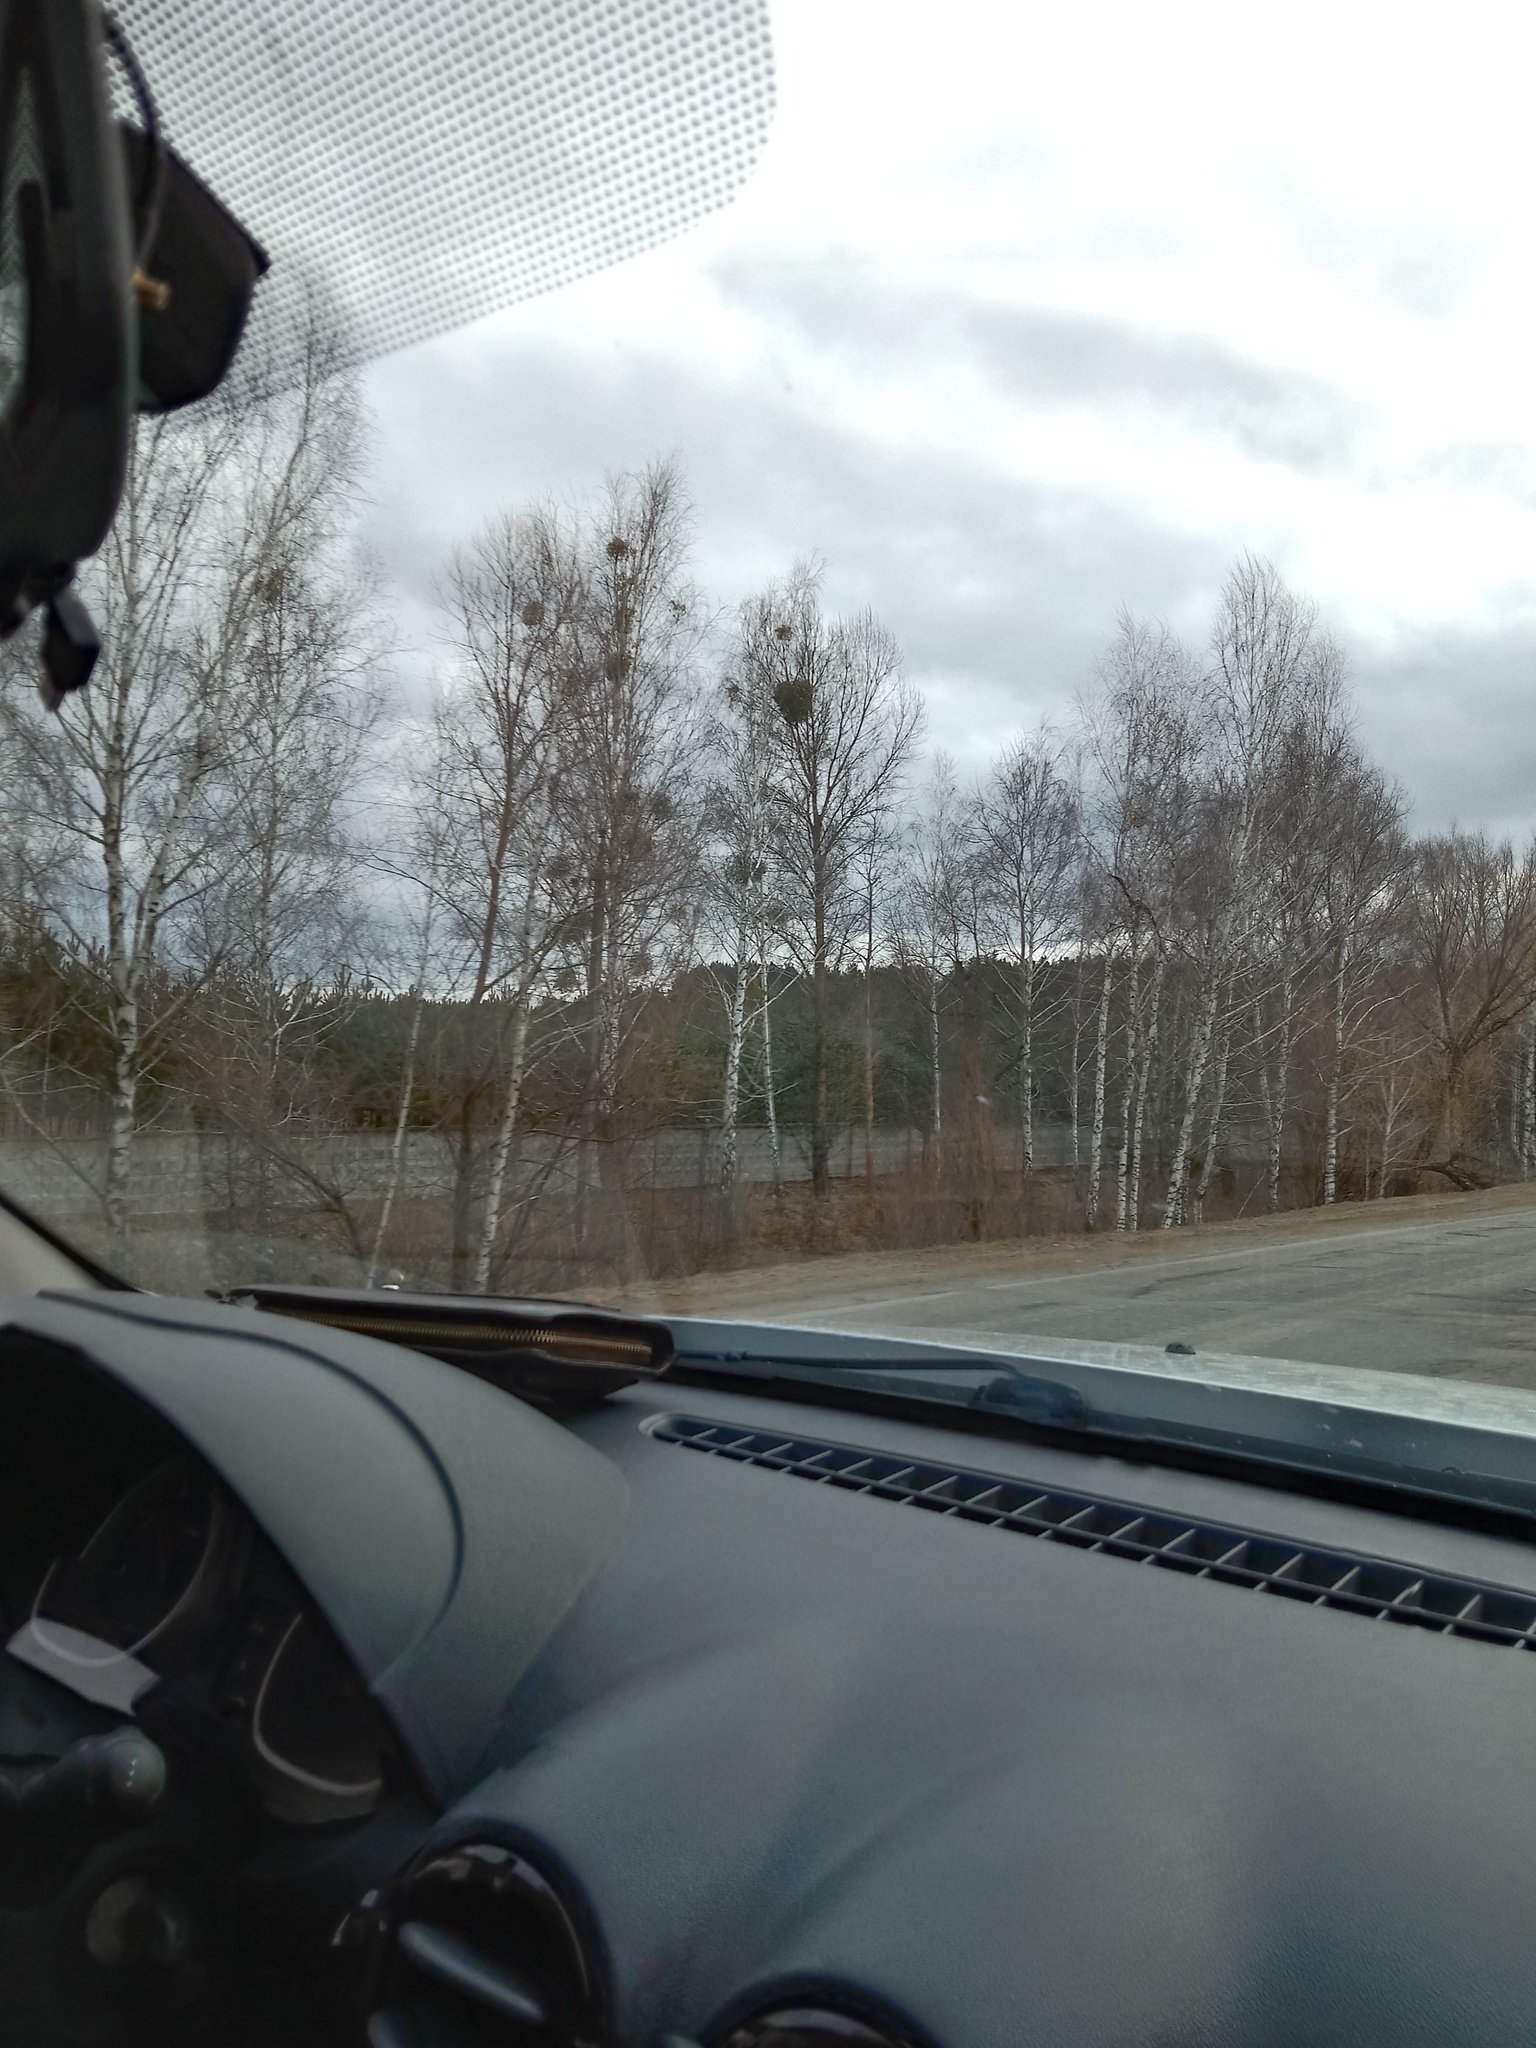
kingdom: Plantae
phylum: Tracheophyta
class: Magnoliopsida
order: Santalales
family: Viscaceae
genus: Viscum
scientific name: Viscum album
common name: Mistletoe
